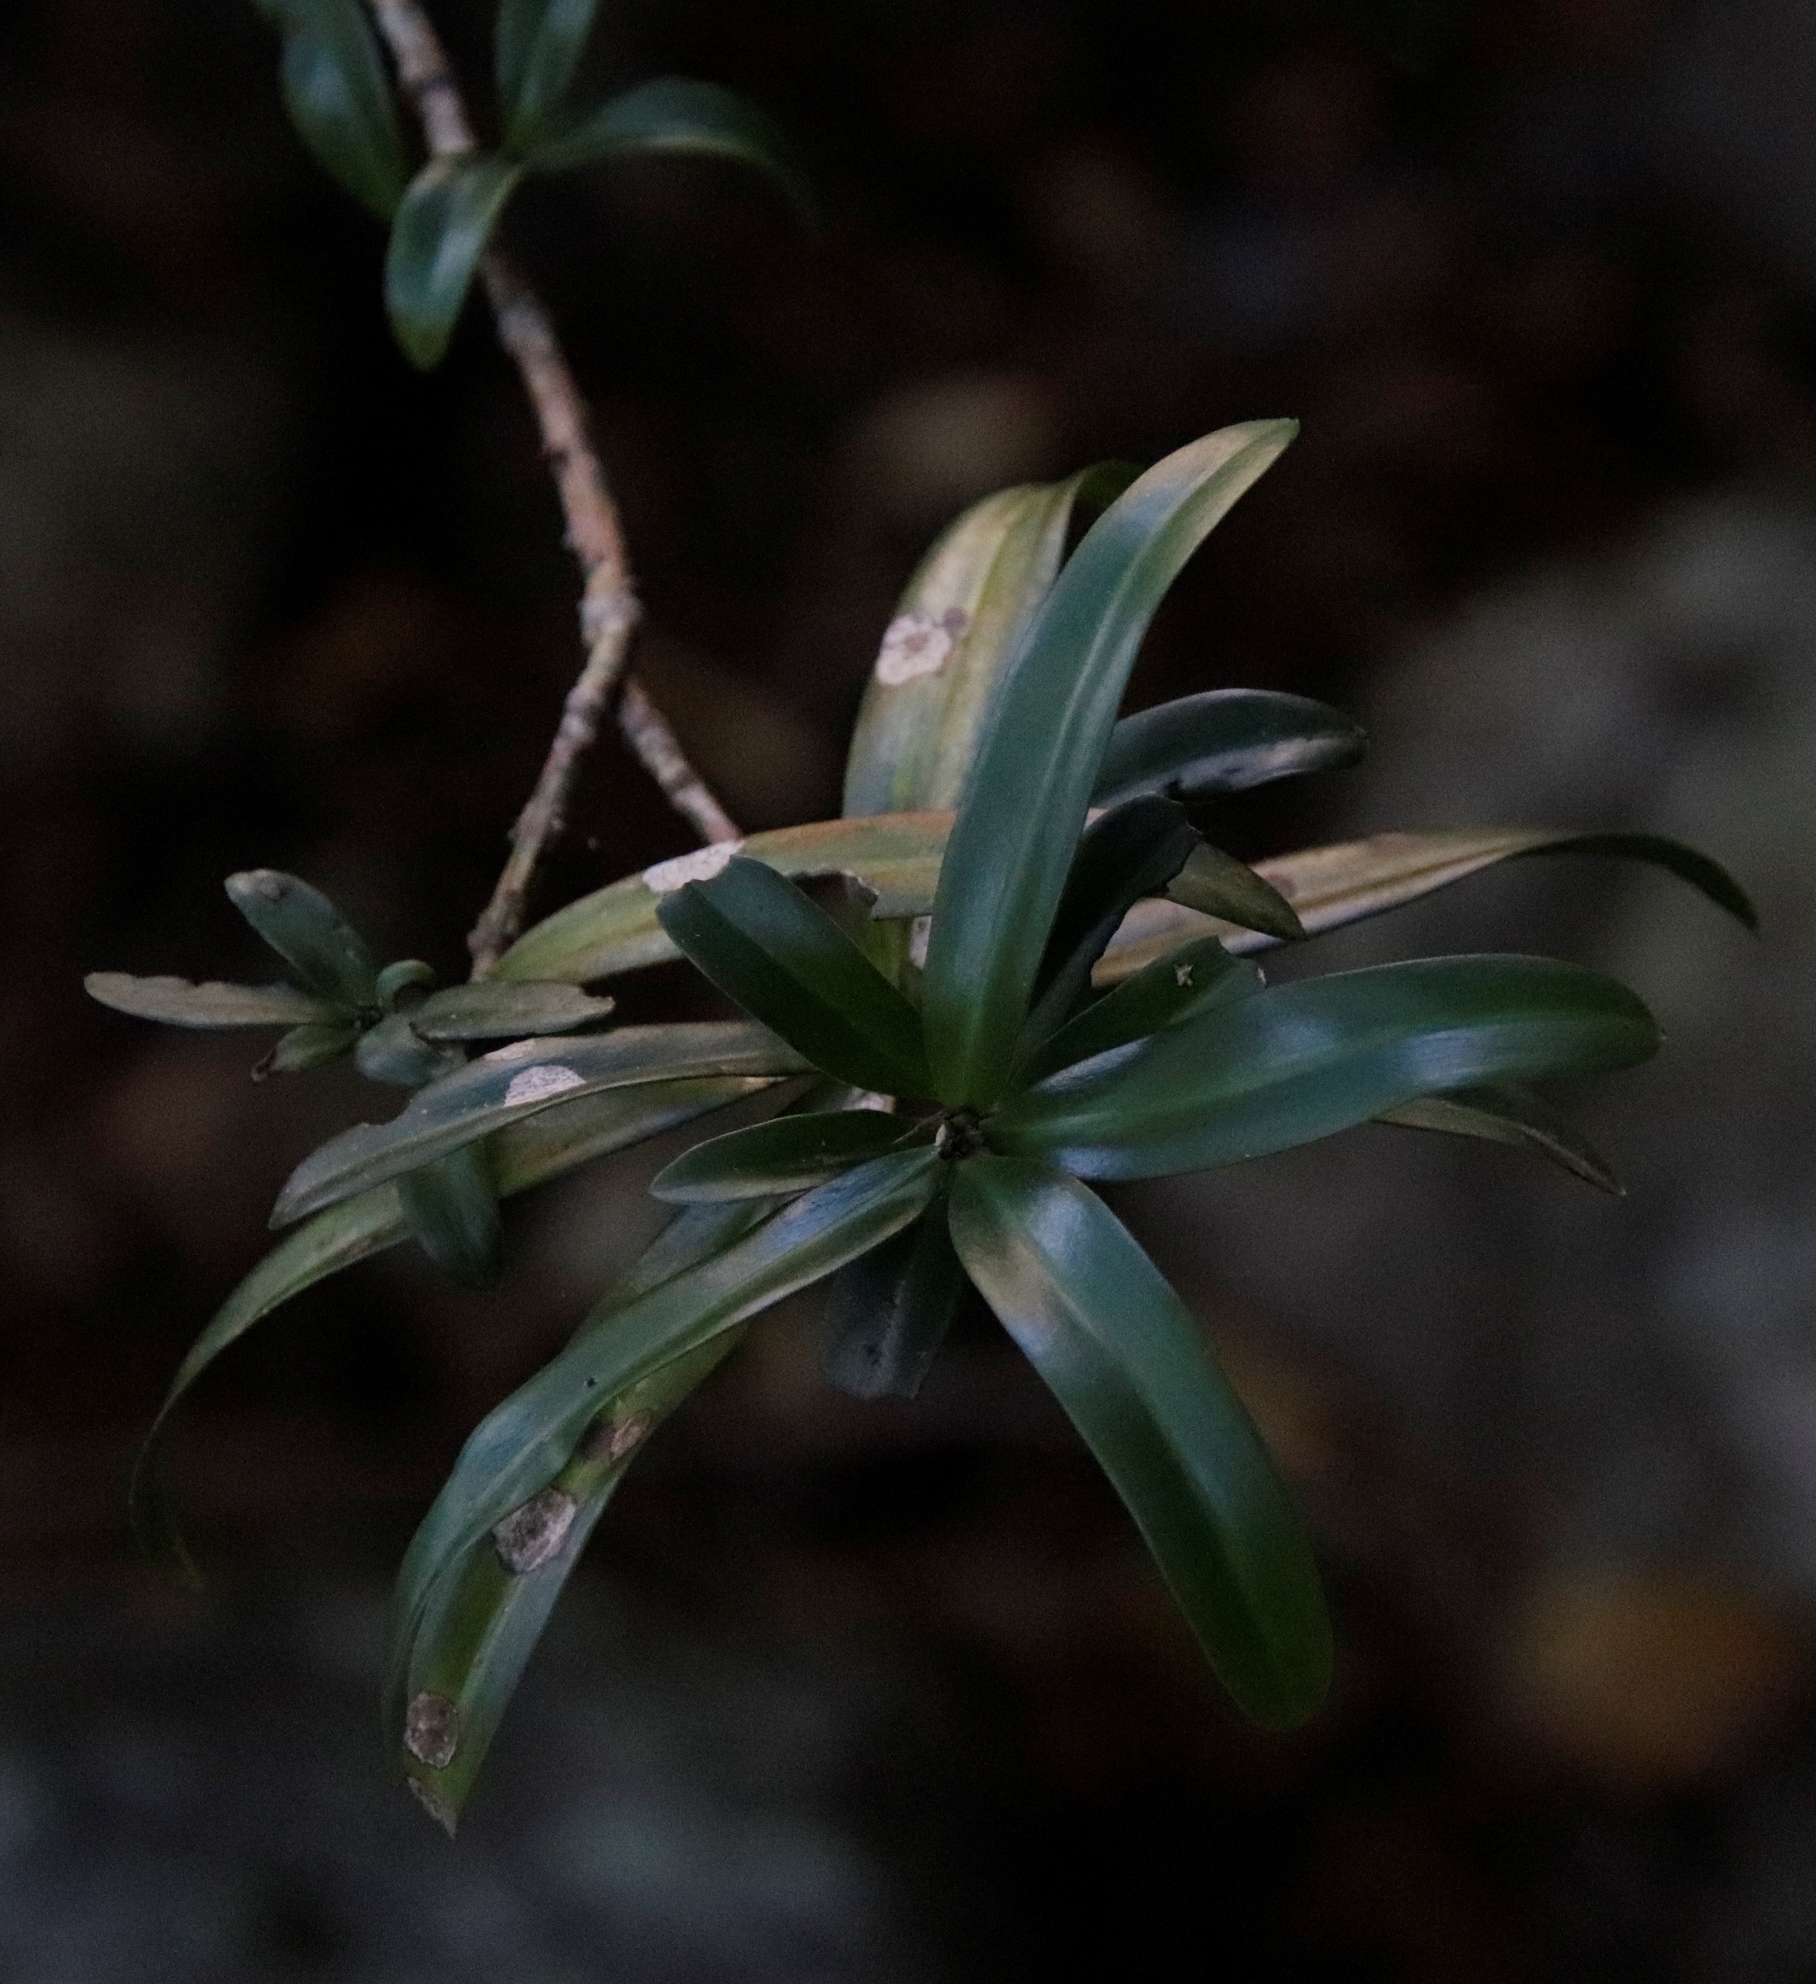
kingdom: Plantae
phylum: Tracheophyta
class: Pinopsida
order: Pinales
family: Podocarpaceae
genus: Podocarpus
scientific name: Podocarpus latifolius
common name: True yellowwood
